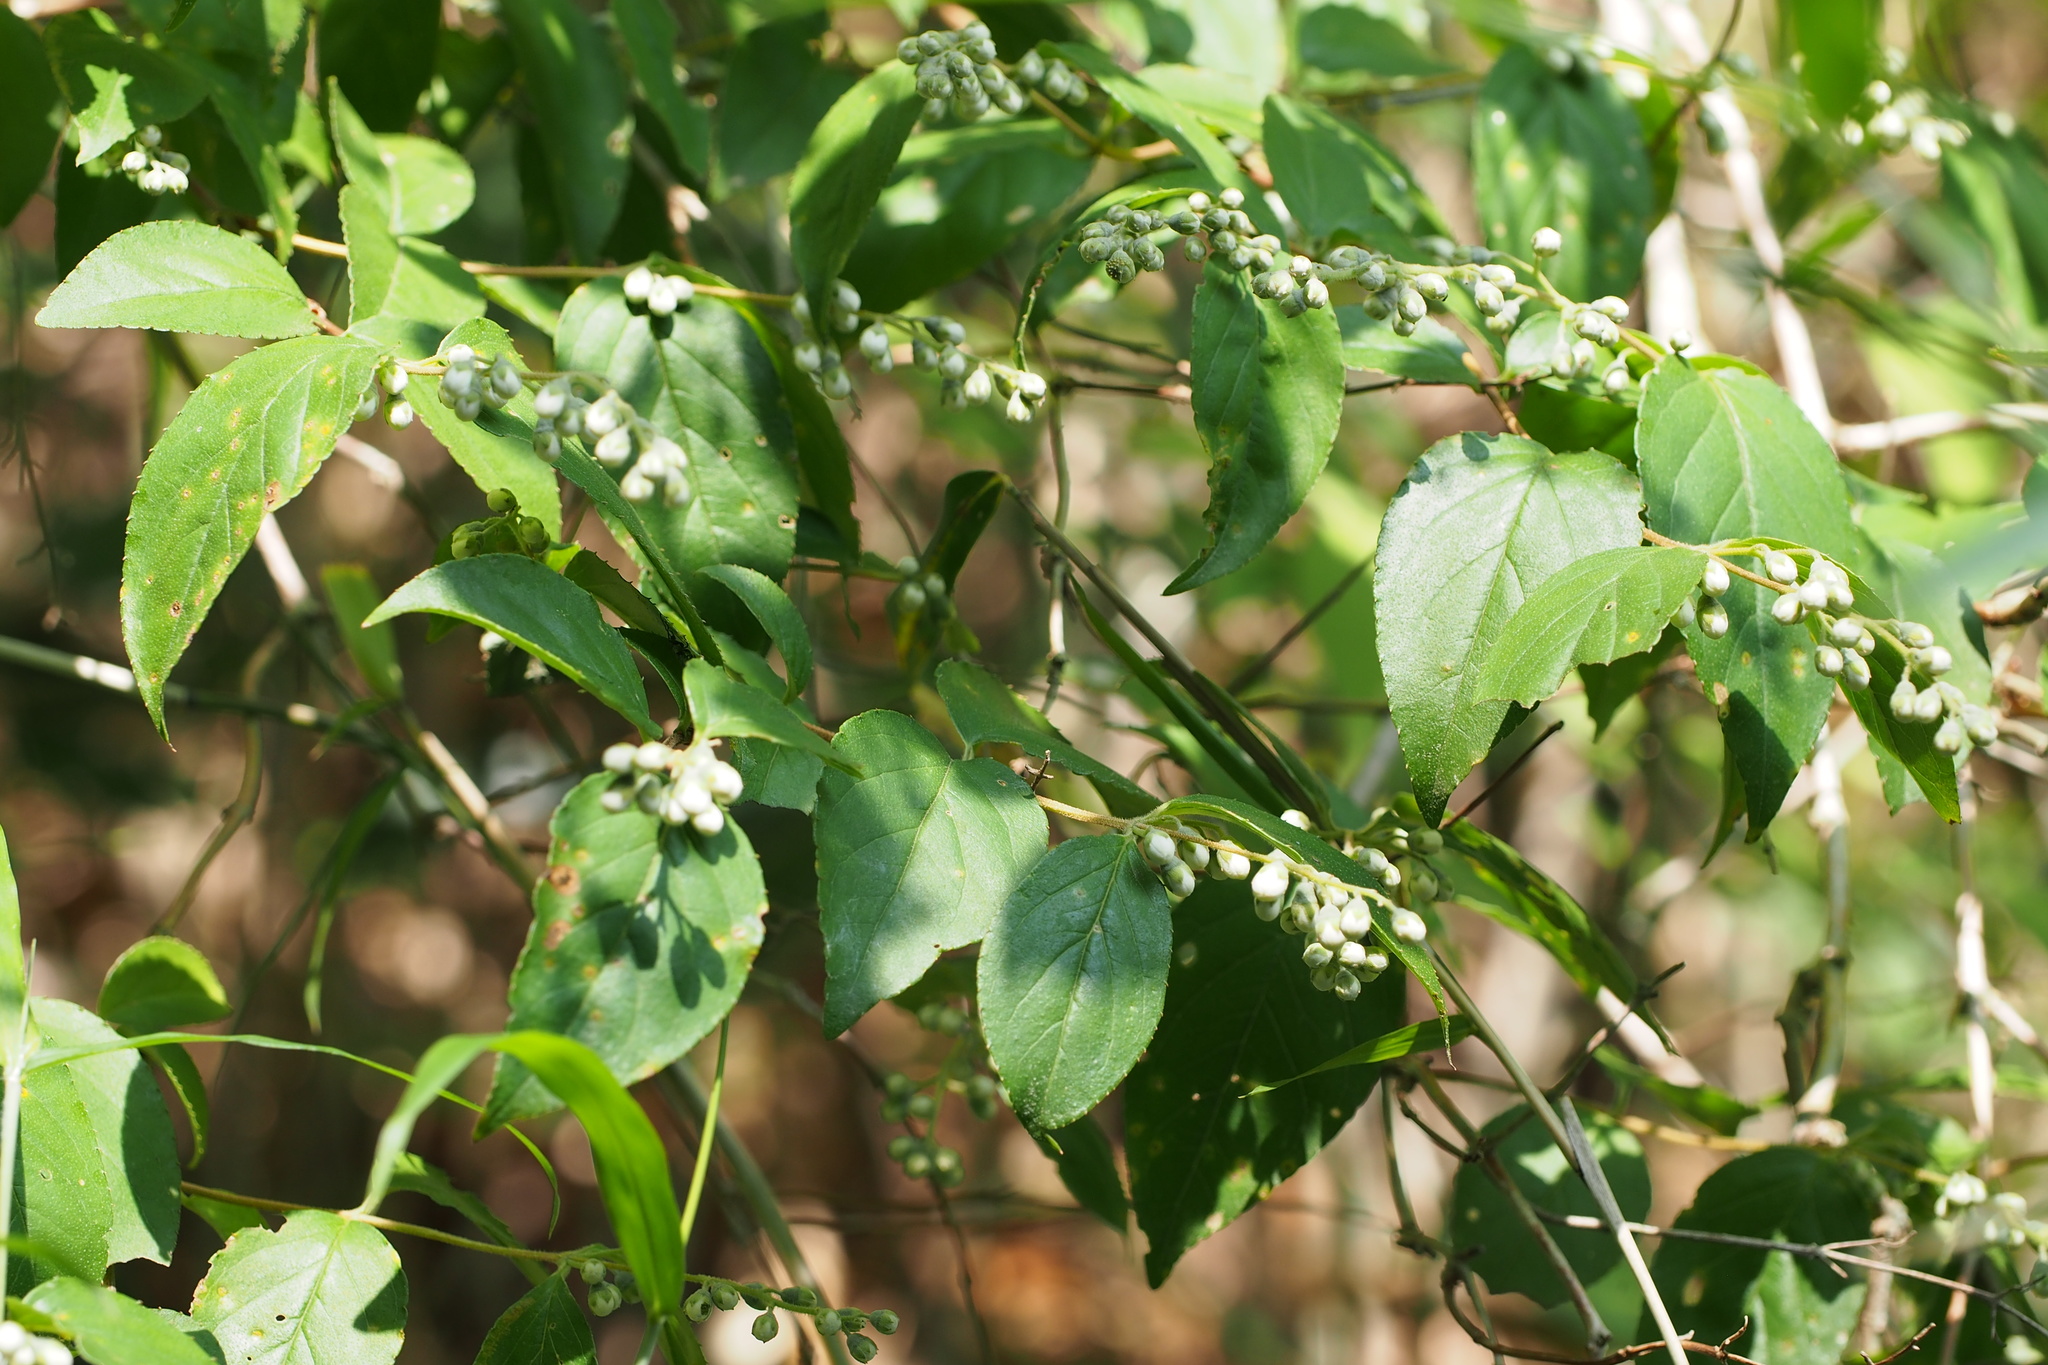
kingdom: Plantae
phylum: Tracheophyta
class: Magnoliopsida
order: Cornales
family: Hydrangeaceae
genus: Deutzia
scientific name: Deutzia crenata
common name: Deutzia
